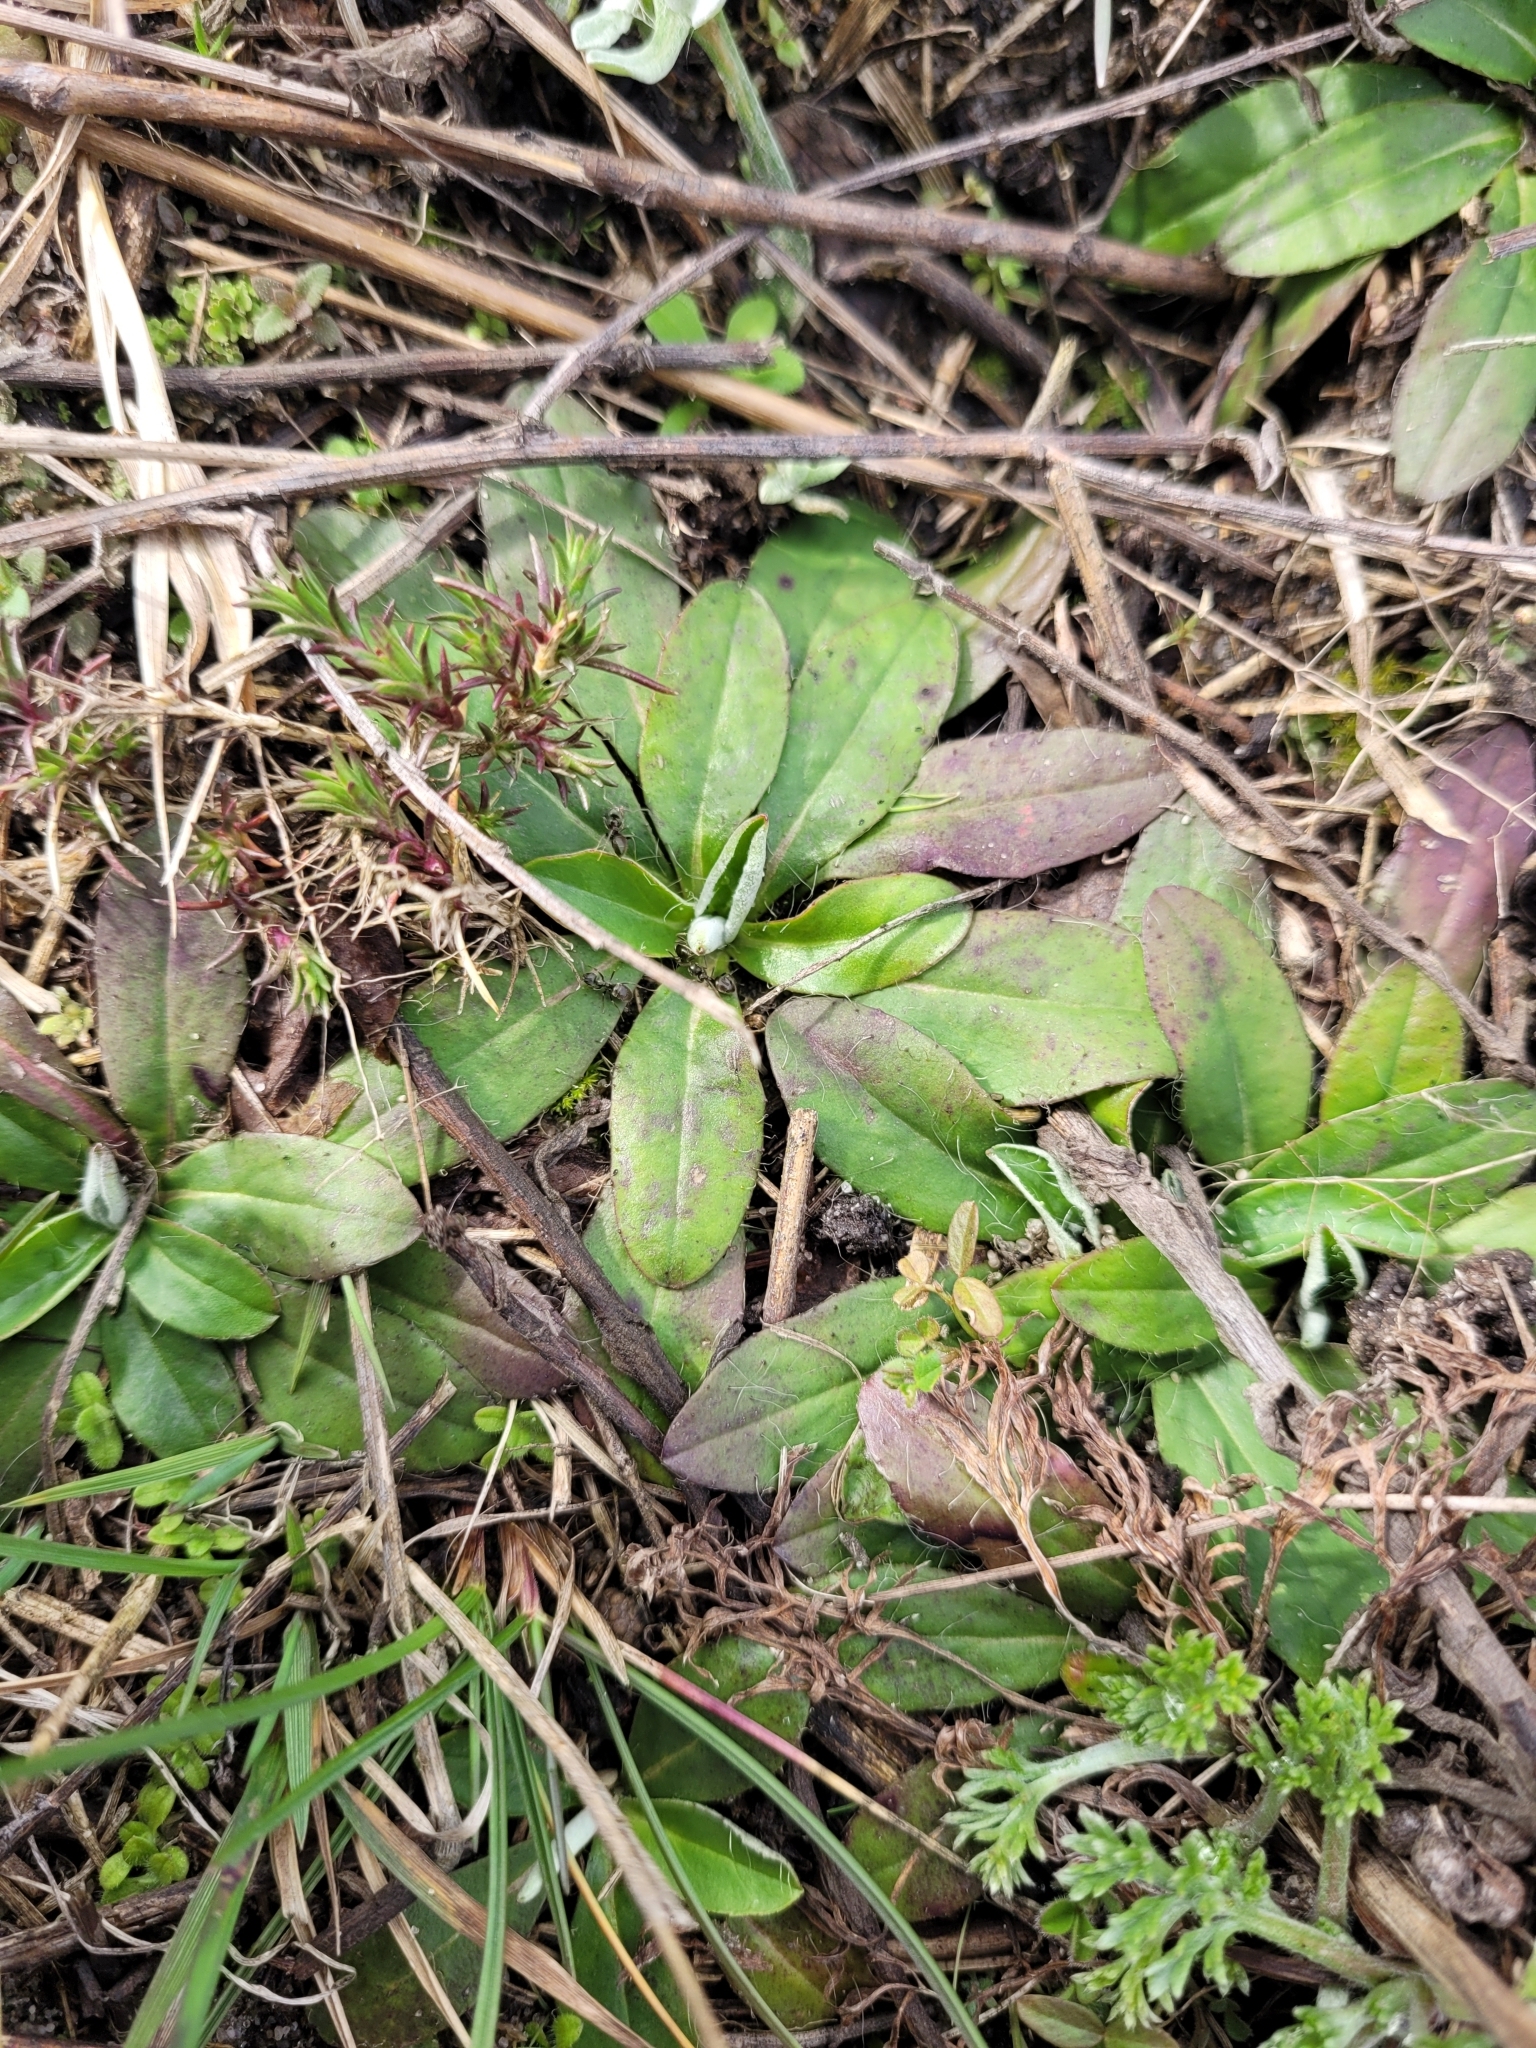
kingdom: Plantae
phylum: Tracheophyta
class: Magnoliopsida
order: Asterales
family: Asteraceae
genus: Pilosella
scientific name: Pilosella officinarum
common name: Mouse-ear hawkweed
